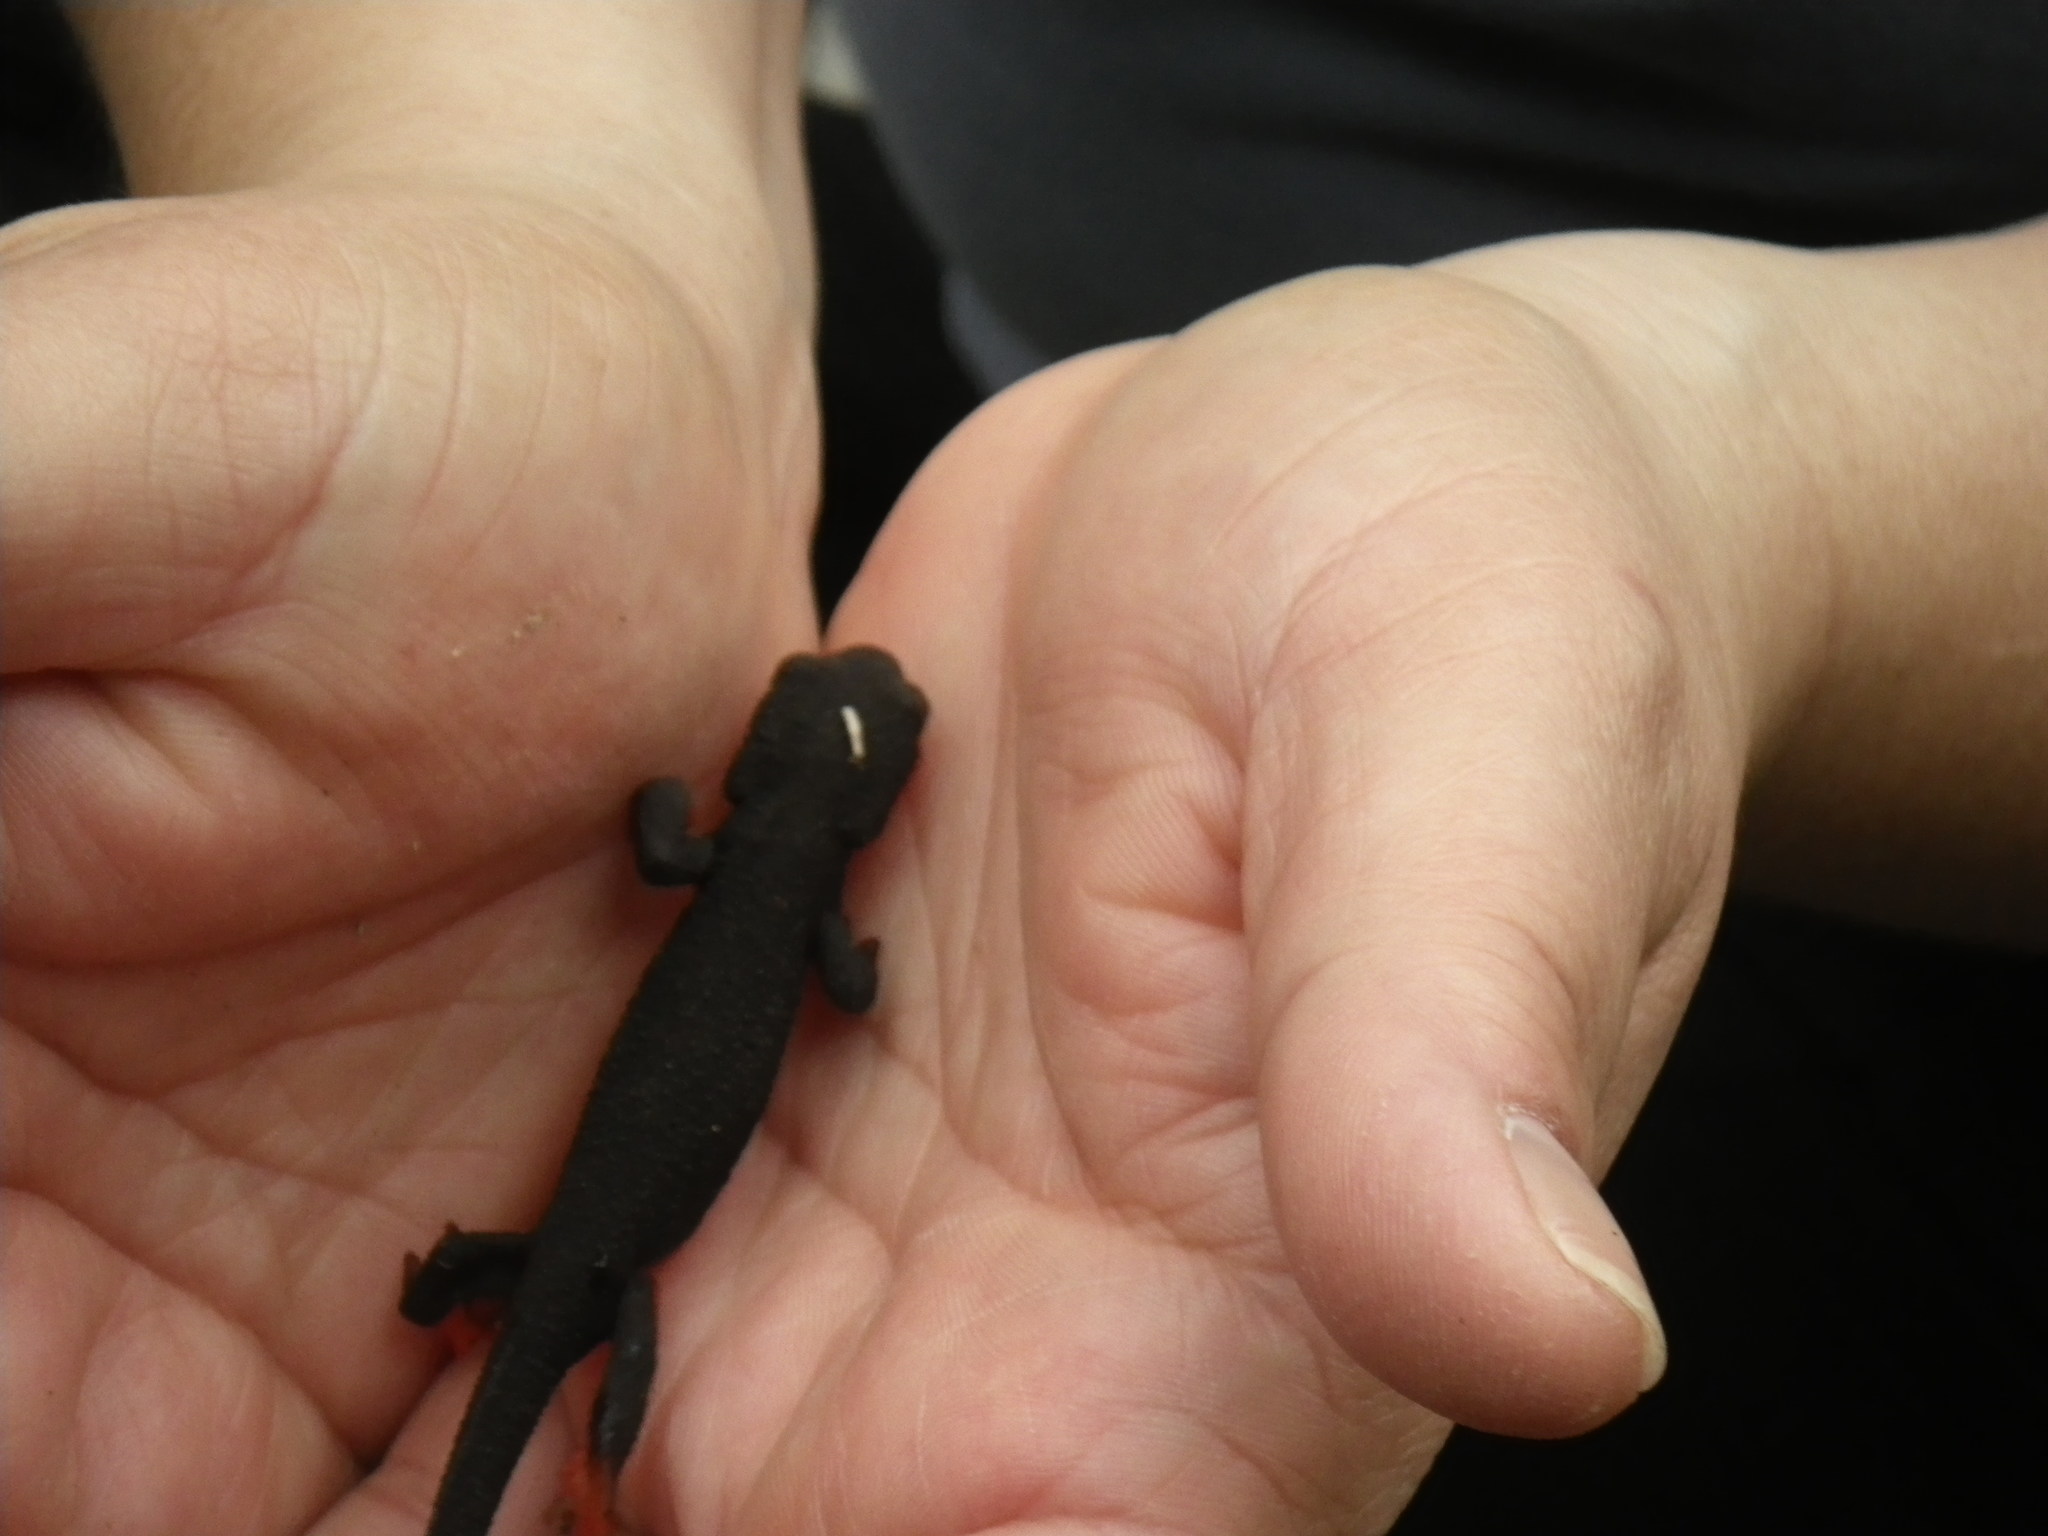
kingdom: Animalia
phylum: Chordata
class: Amphibia
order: Caudata
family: Salamandridae
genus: Taricha
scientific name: Taricha rivularis
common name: Red-bellied newt
